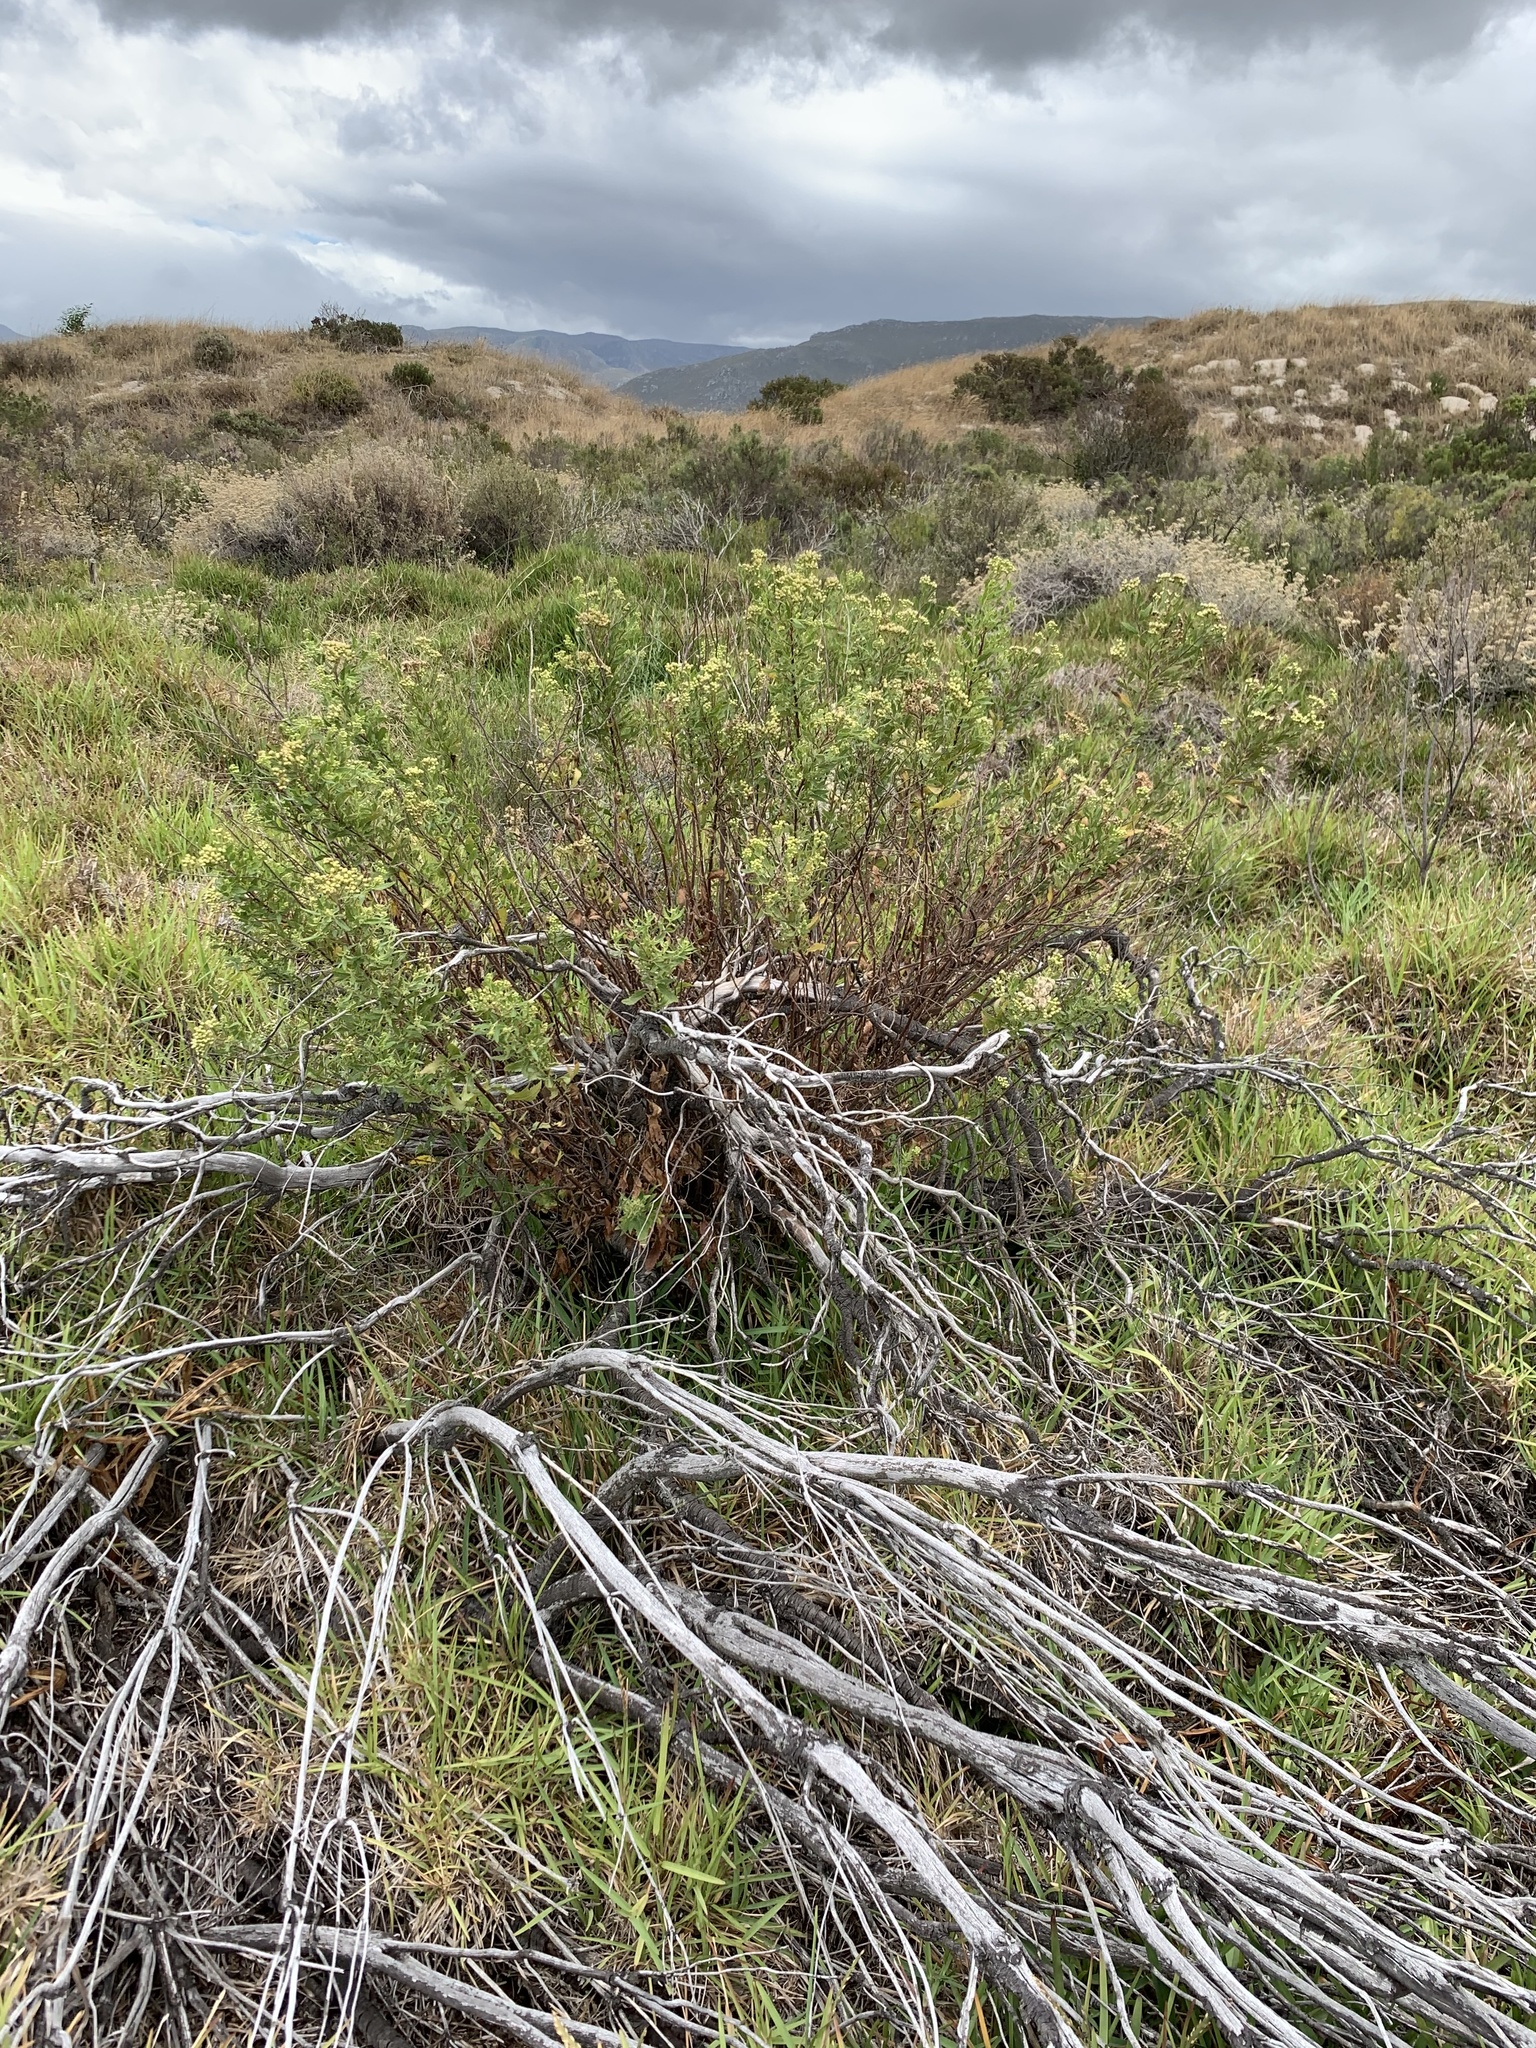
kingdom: Plantae
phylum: Tracheophyta
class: Magnoliopsida
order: Asterales
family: Asteraceae
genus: Nidorella
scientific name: Nidorella ivifolia
